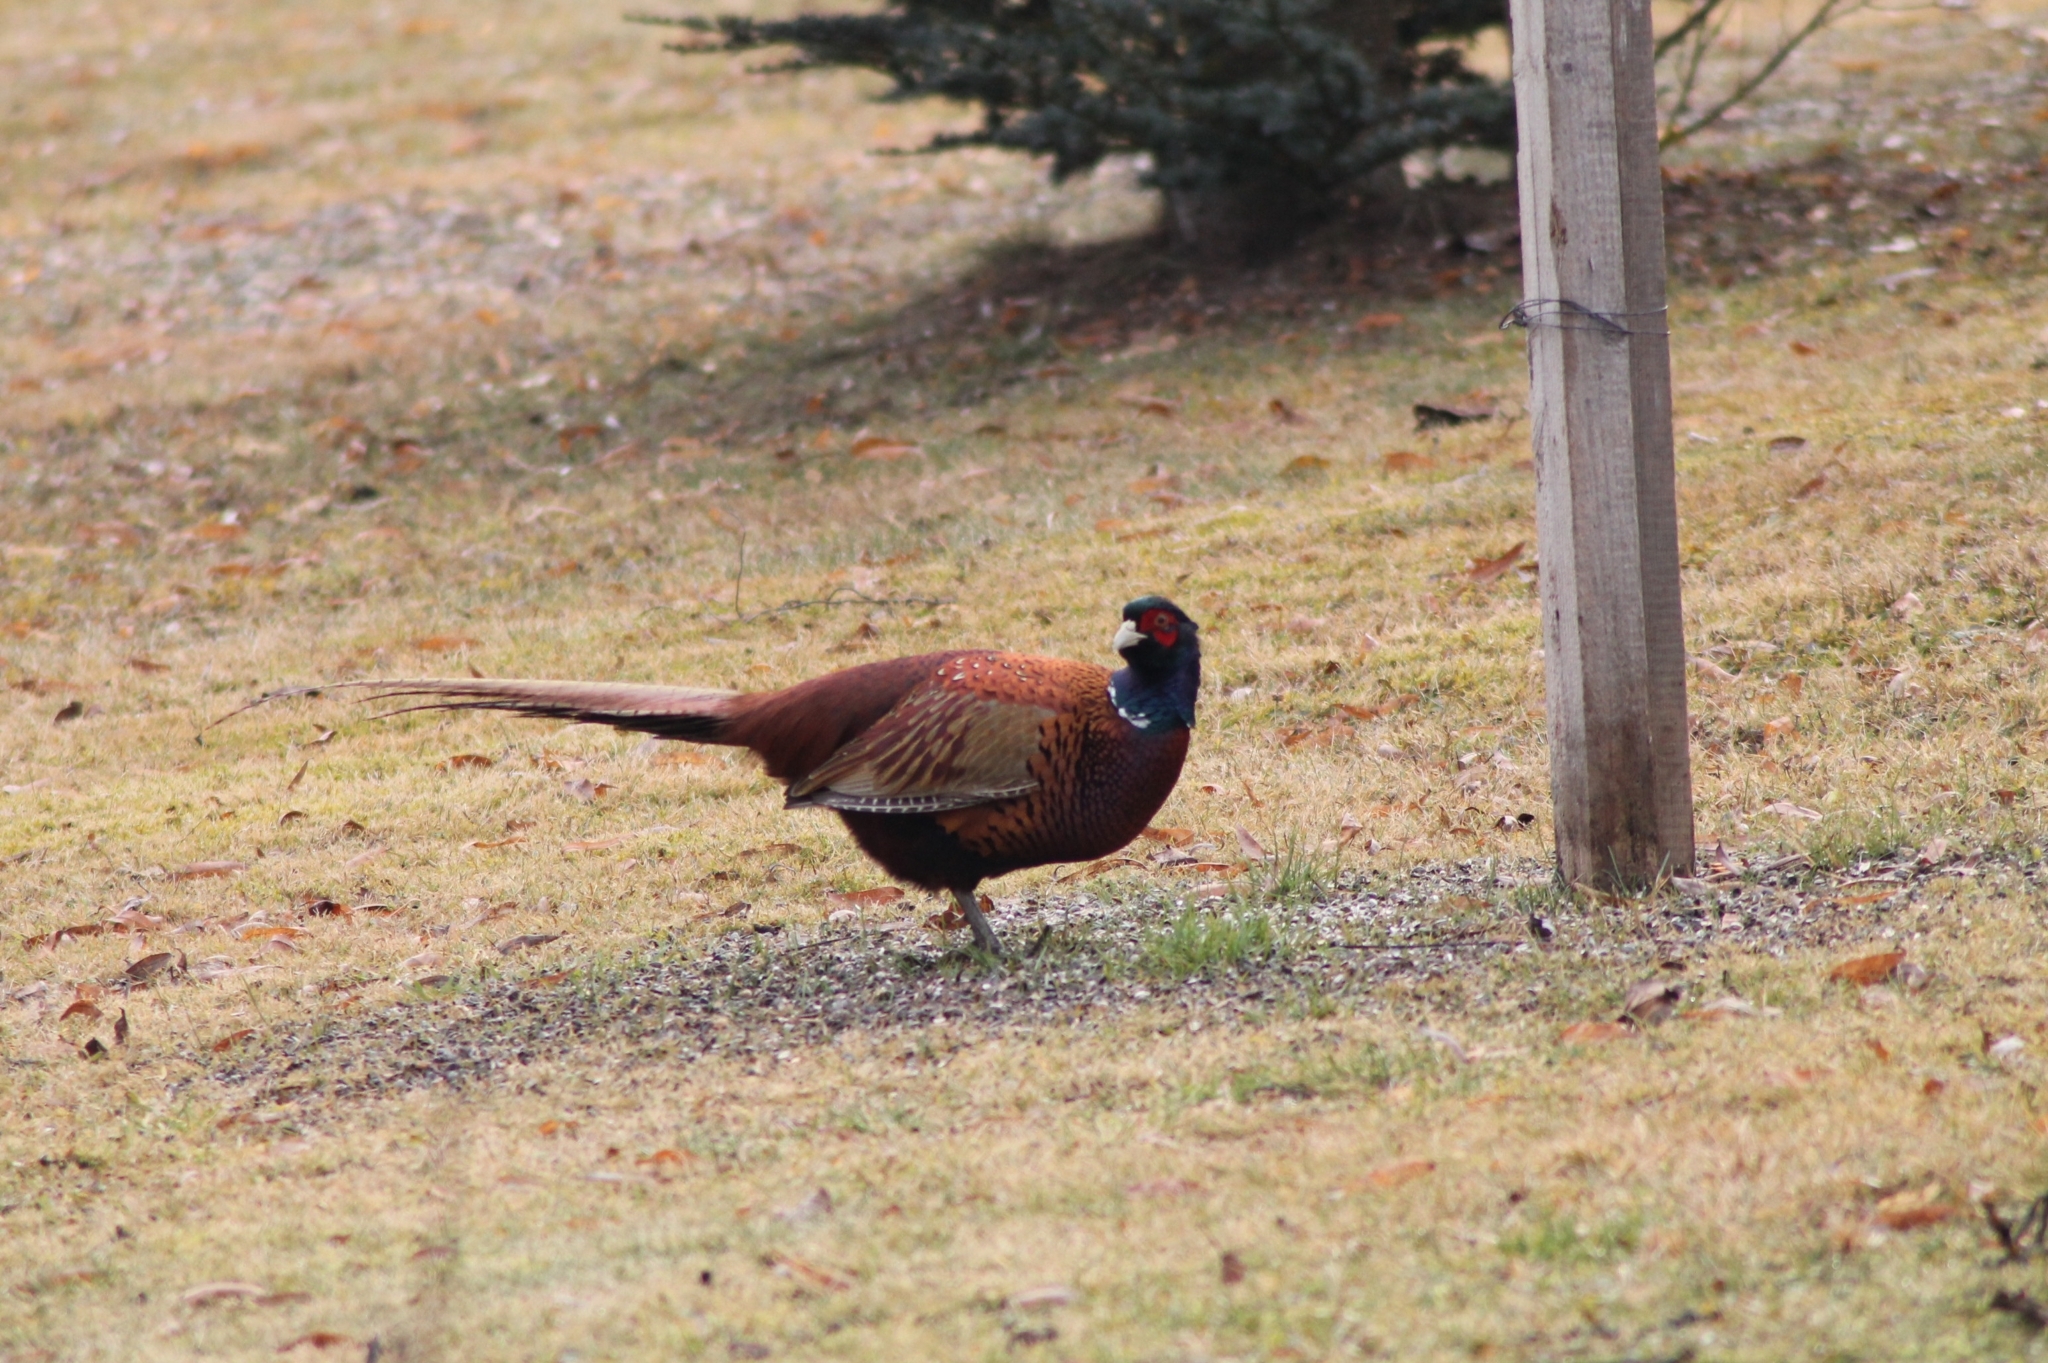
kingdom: Animalia
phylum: Chordata
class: Aves
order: Galliformes
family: Phasianidae
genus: Phasianus
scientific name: Phasianus colchicus
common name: Common pheasant
